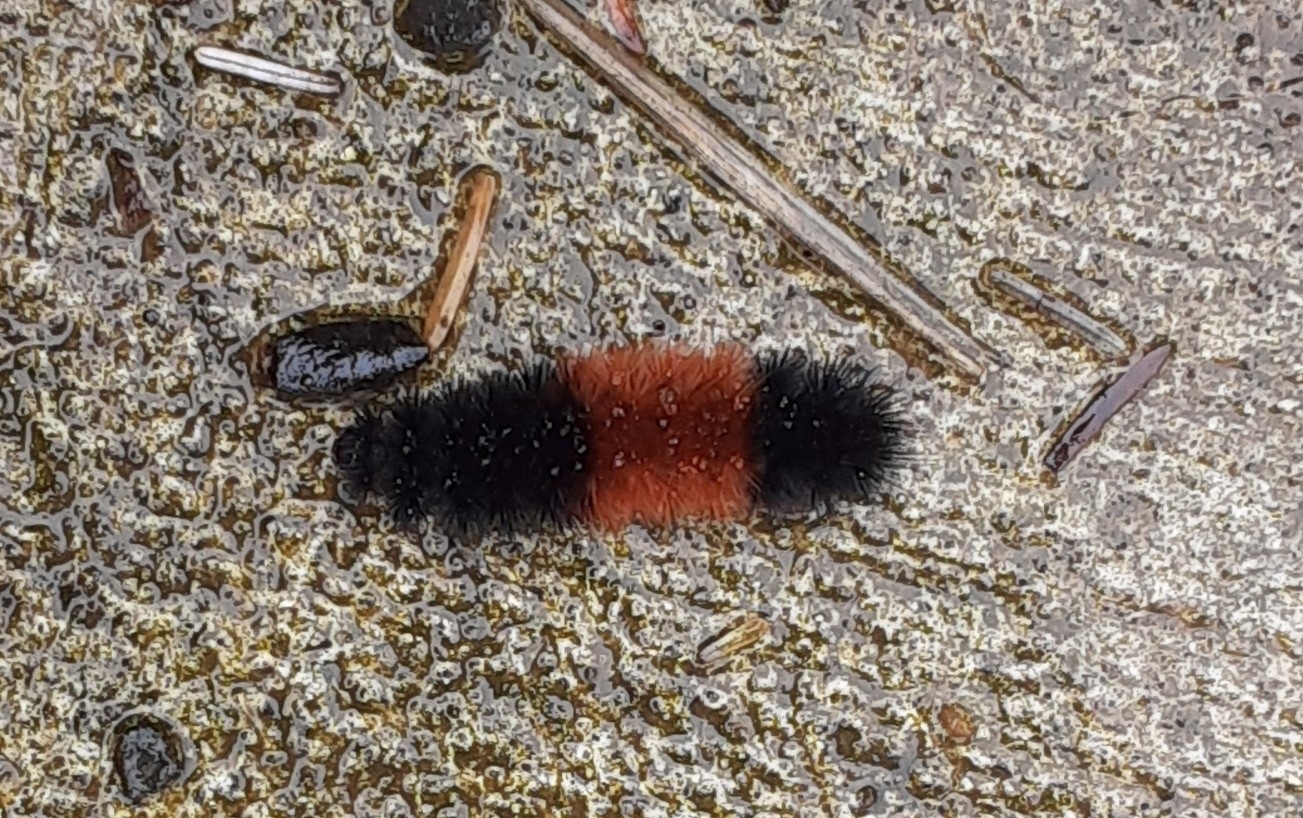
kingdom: Animalia
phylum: Arthropoda
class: Insecta
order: Lepidoptera
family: Erebidae
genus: Pyrrharctia
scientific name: Pyrrharctia isabella
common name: Isabella tiger moth
